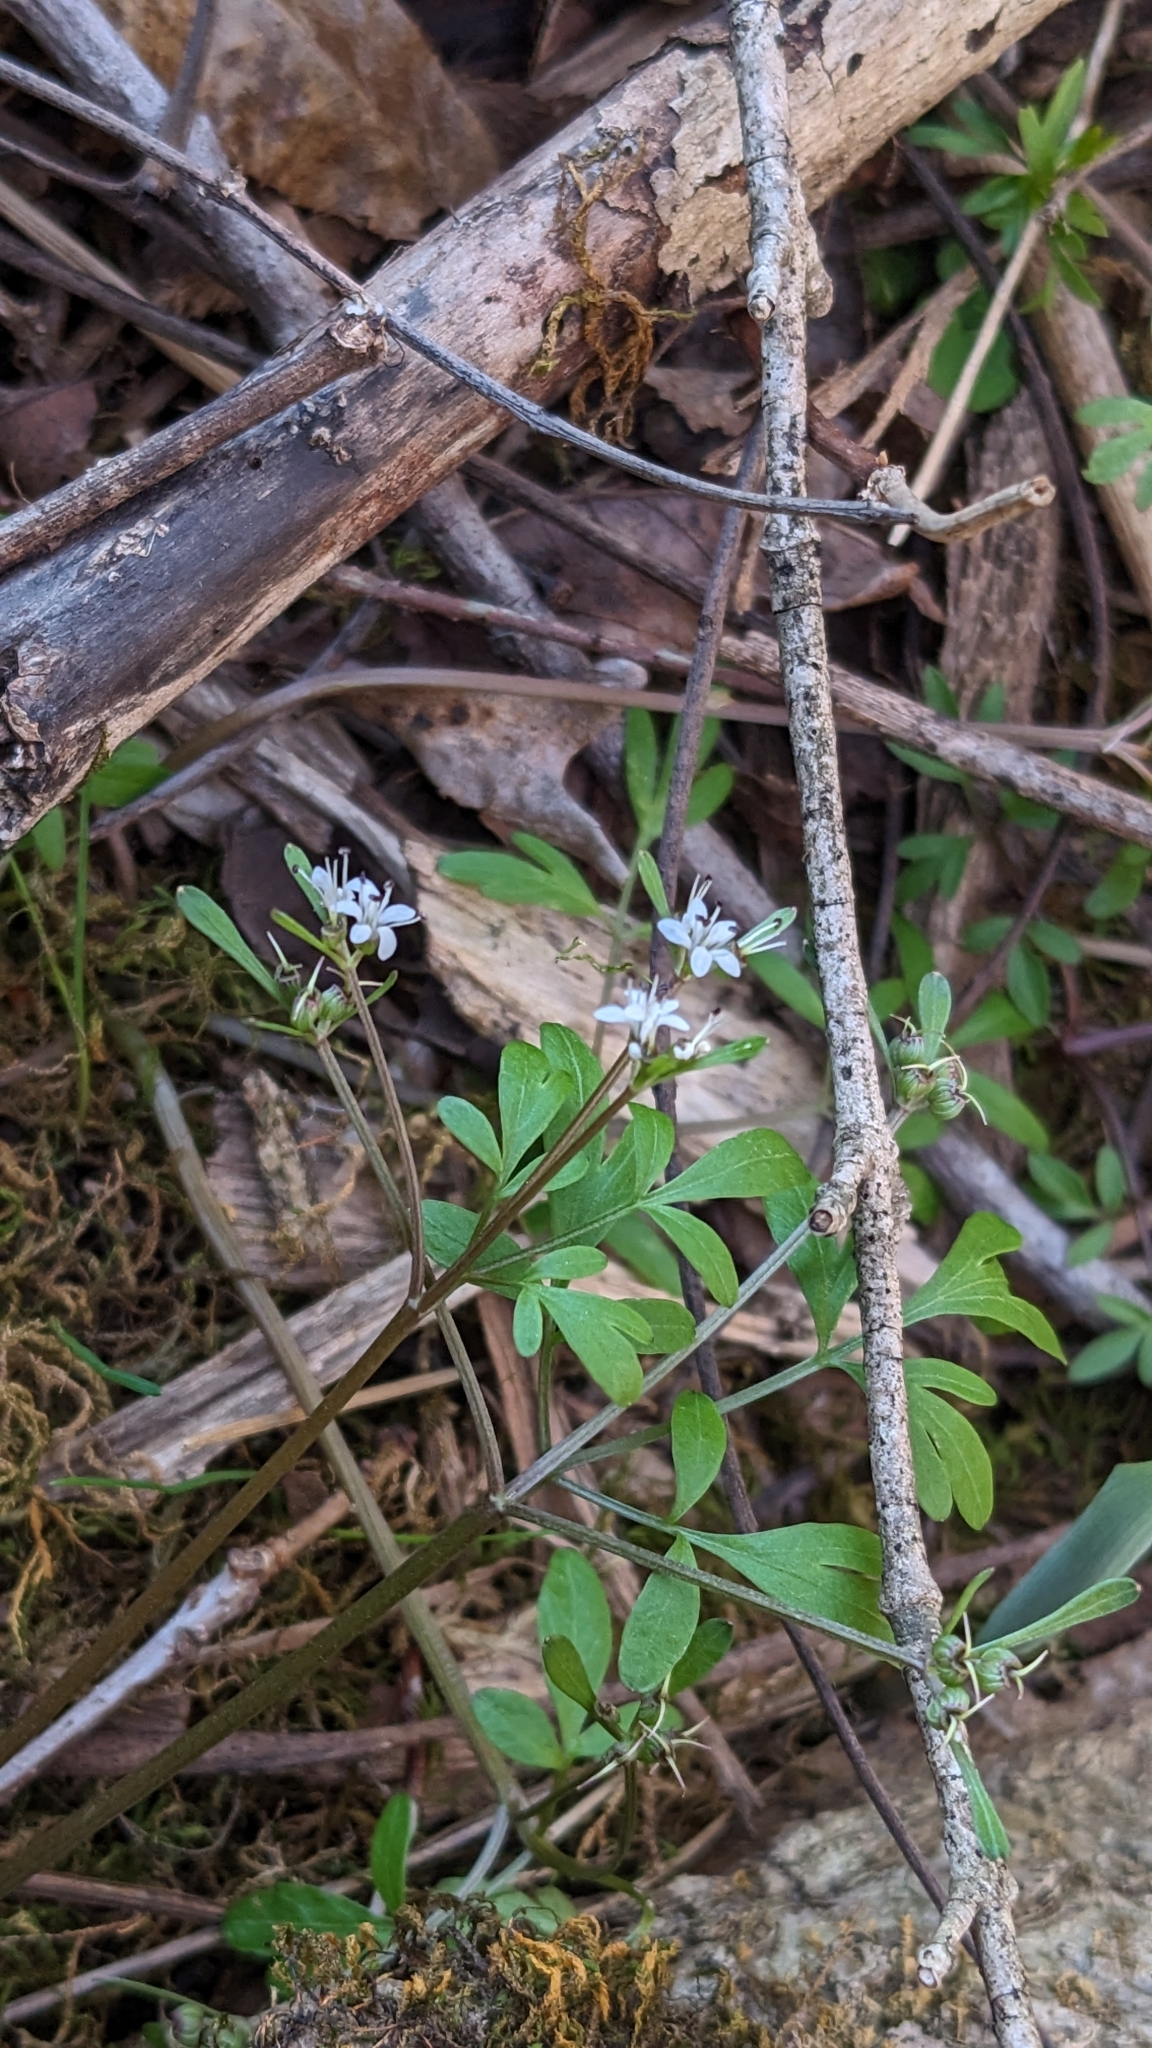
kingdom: Plantae
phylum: Tracheophyta
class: Magnoliopsida
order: Apiales
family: Apiaceae
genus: Erigenia
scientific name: Erigenia bulbosa
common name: Pepper-and-salt
